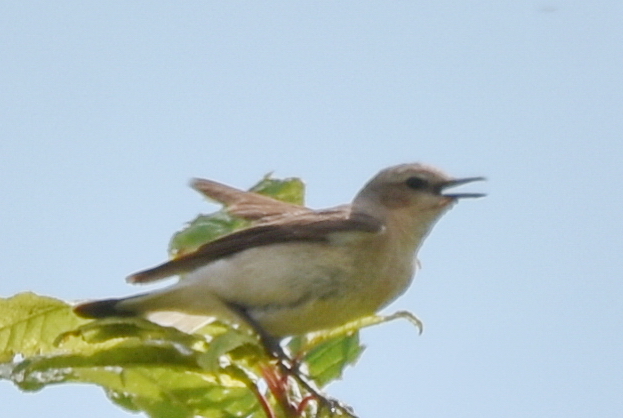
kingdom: Animalia
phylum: Chordata
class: Aves
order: Passeriformes
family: Muscicapidae
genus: Oenanthe
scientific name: Oenanthe oenanthe
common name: Northern wheatear
